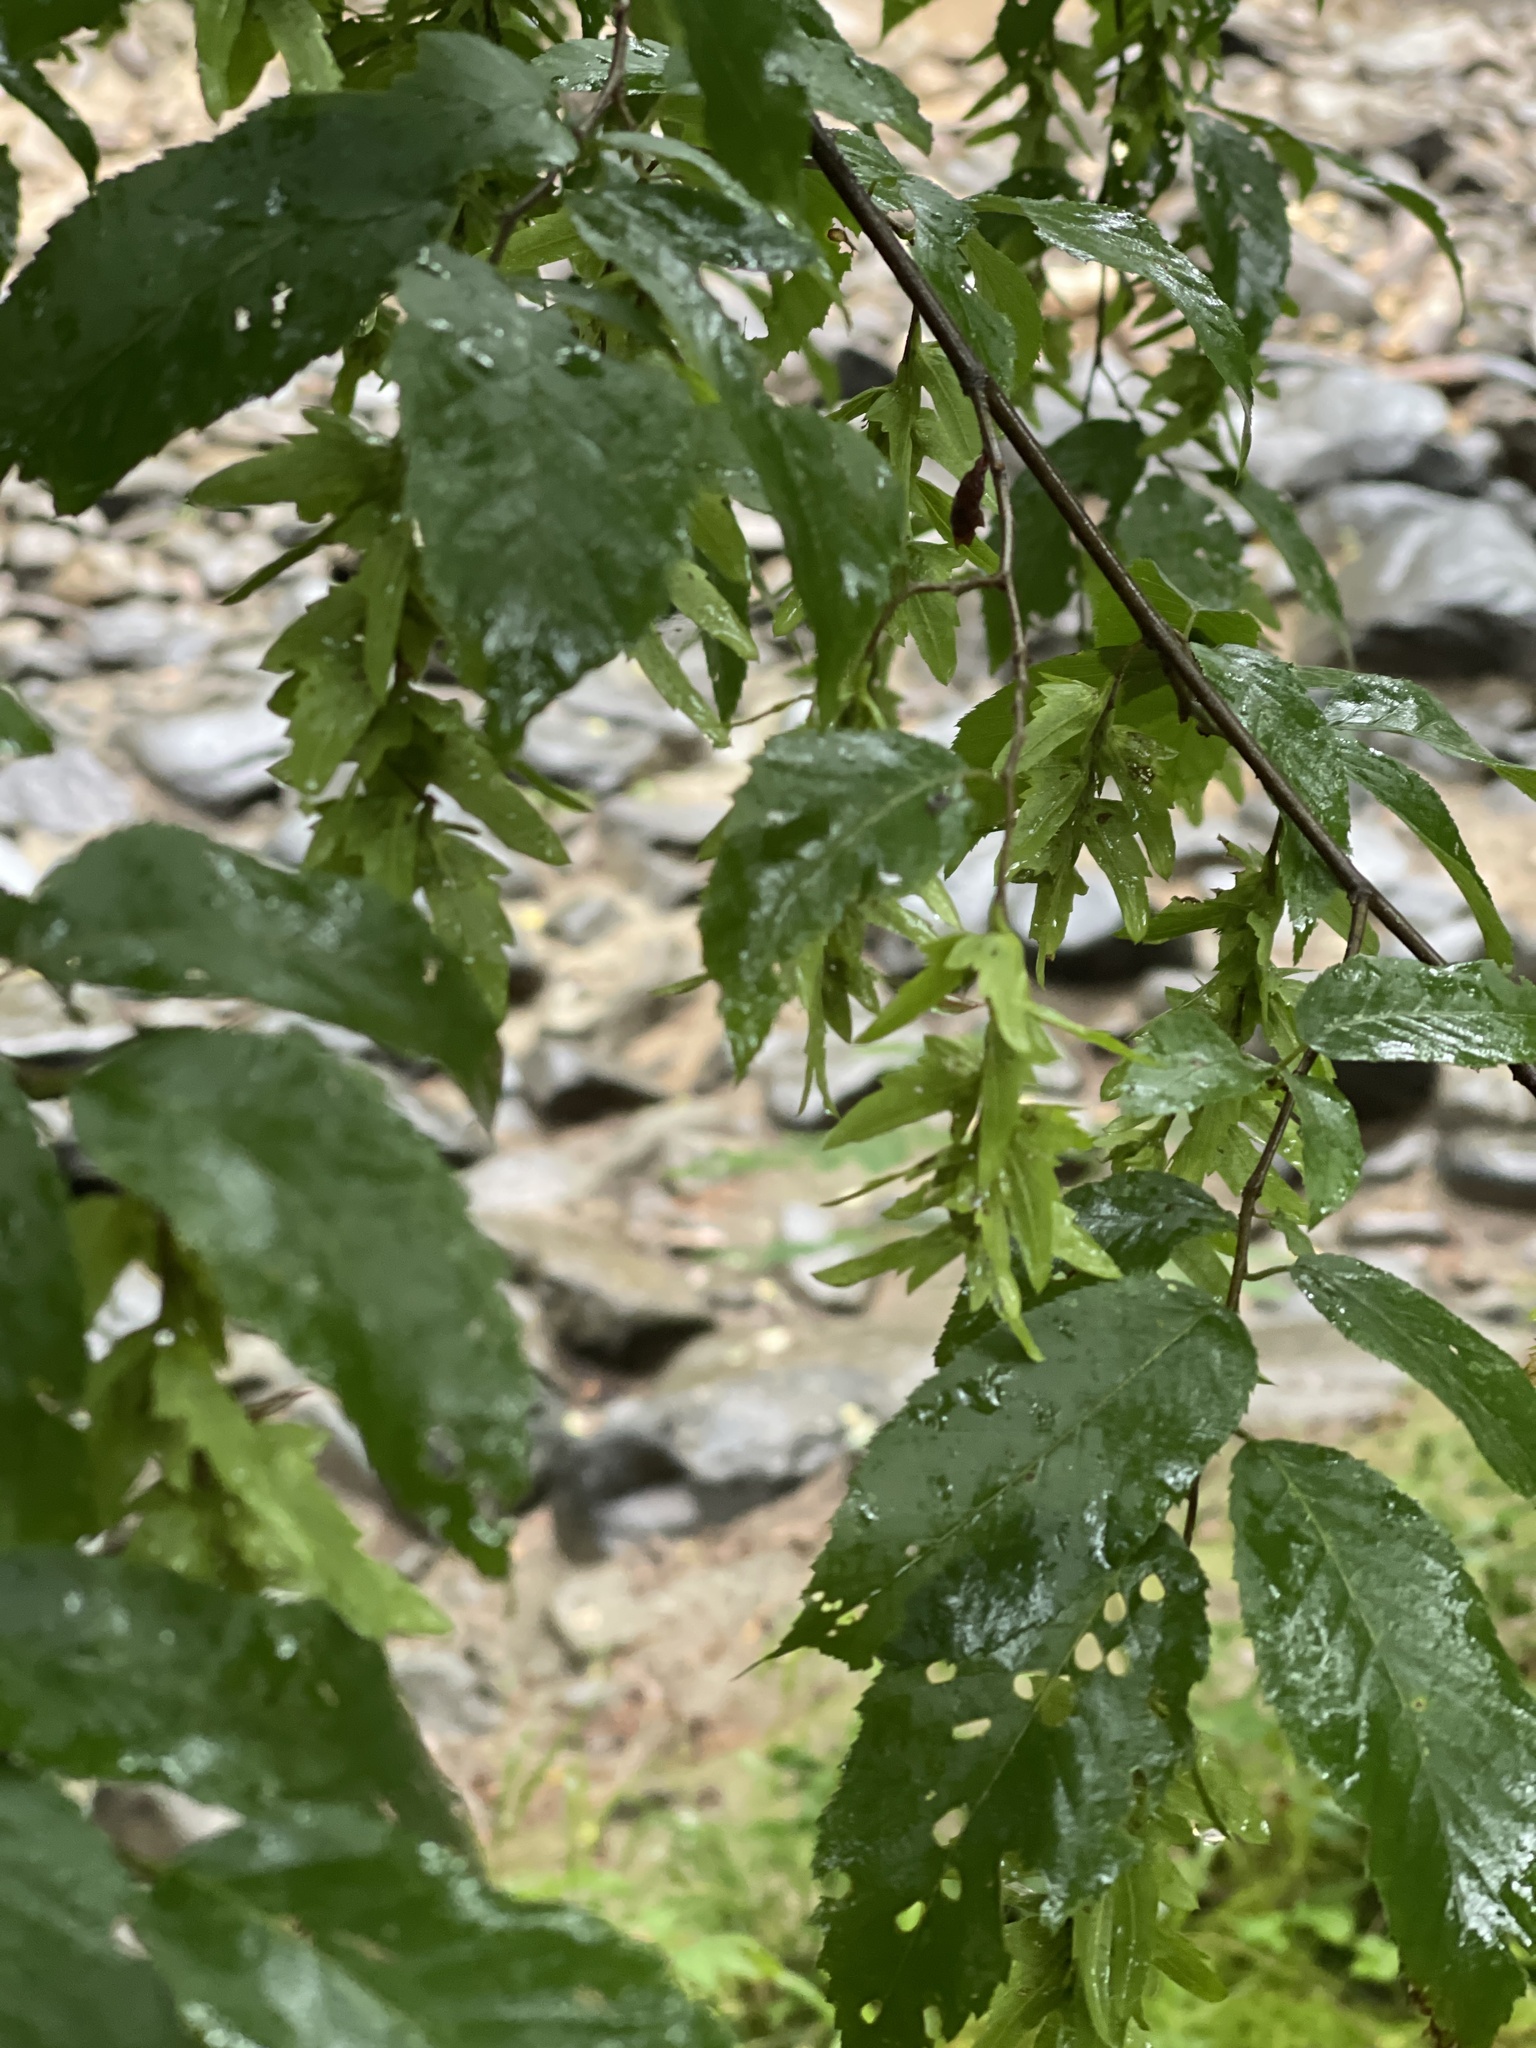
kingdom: Plantae
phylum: Tracheophyta
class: Magnoliopsida
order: Fagales
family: Betulaceae
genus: Carpinus
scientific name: Carpinus caroliniana
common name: American hornbeam
